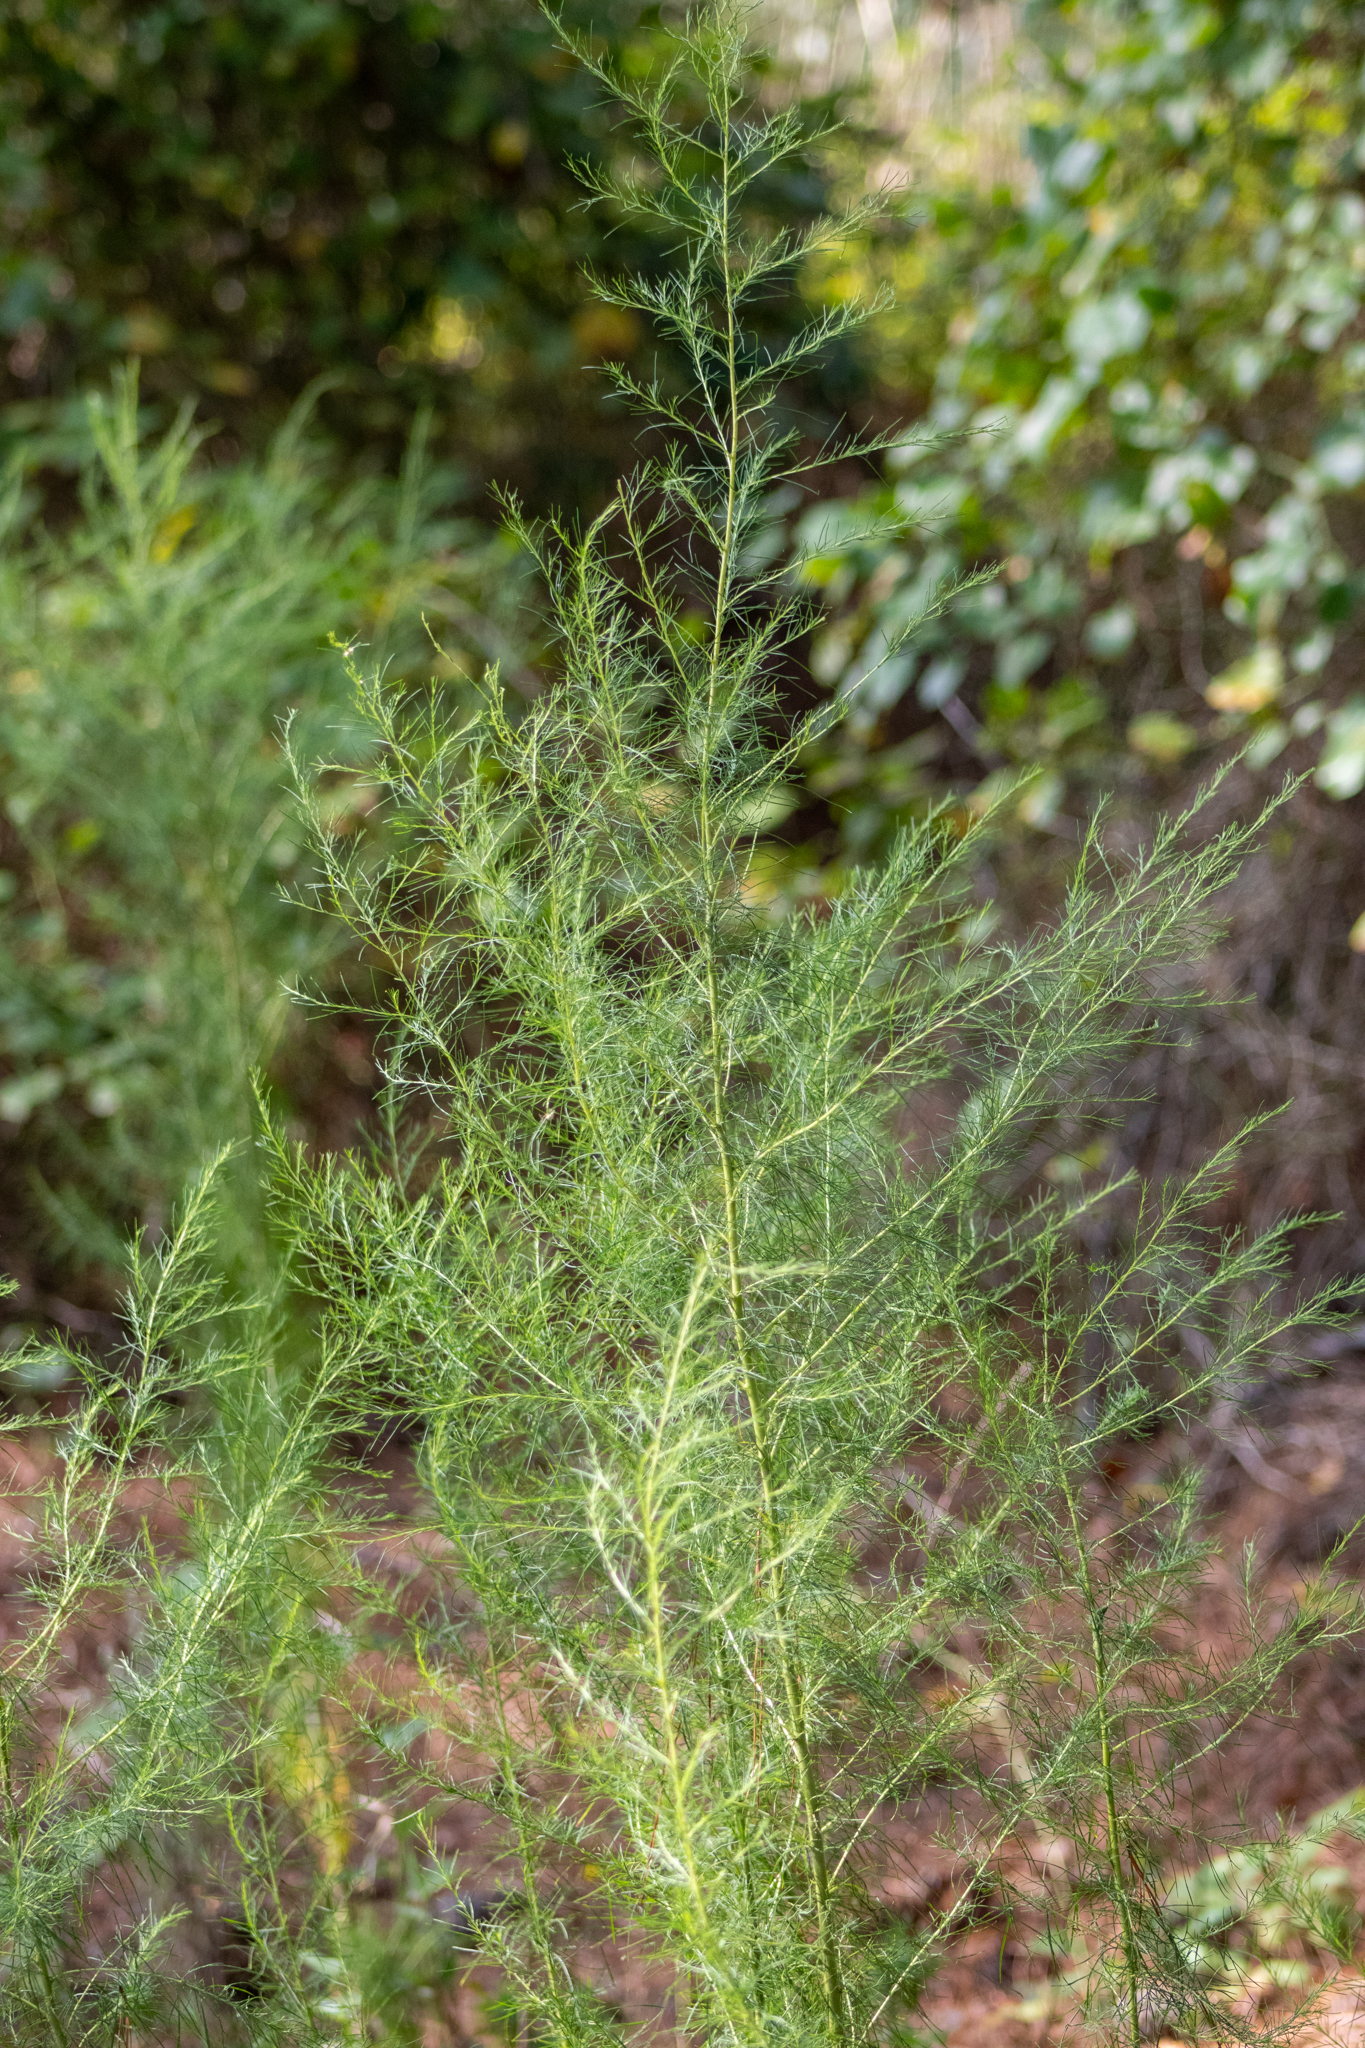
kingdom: Plantae
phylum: Tracheophyta
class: Magnoliopsida
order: Asterales
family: Asteraceae
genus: Eupatorium
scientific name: Eupatorium capillifolium
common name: Dog-fennel
